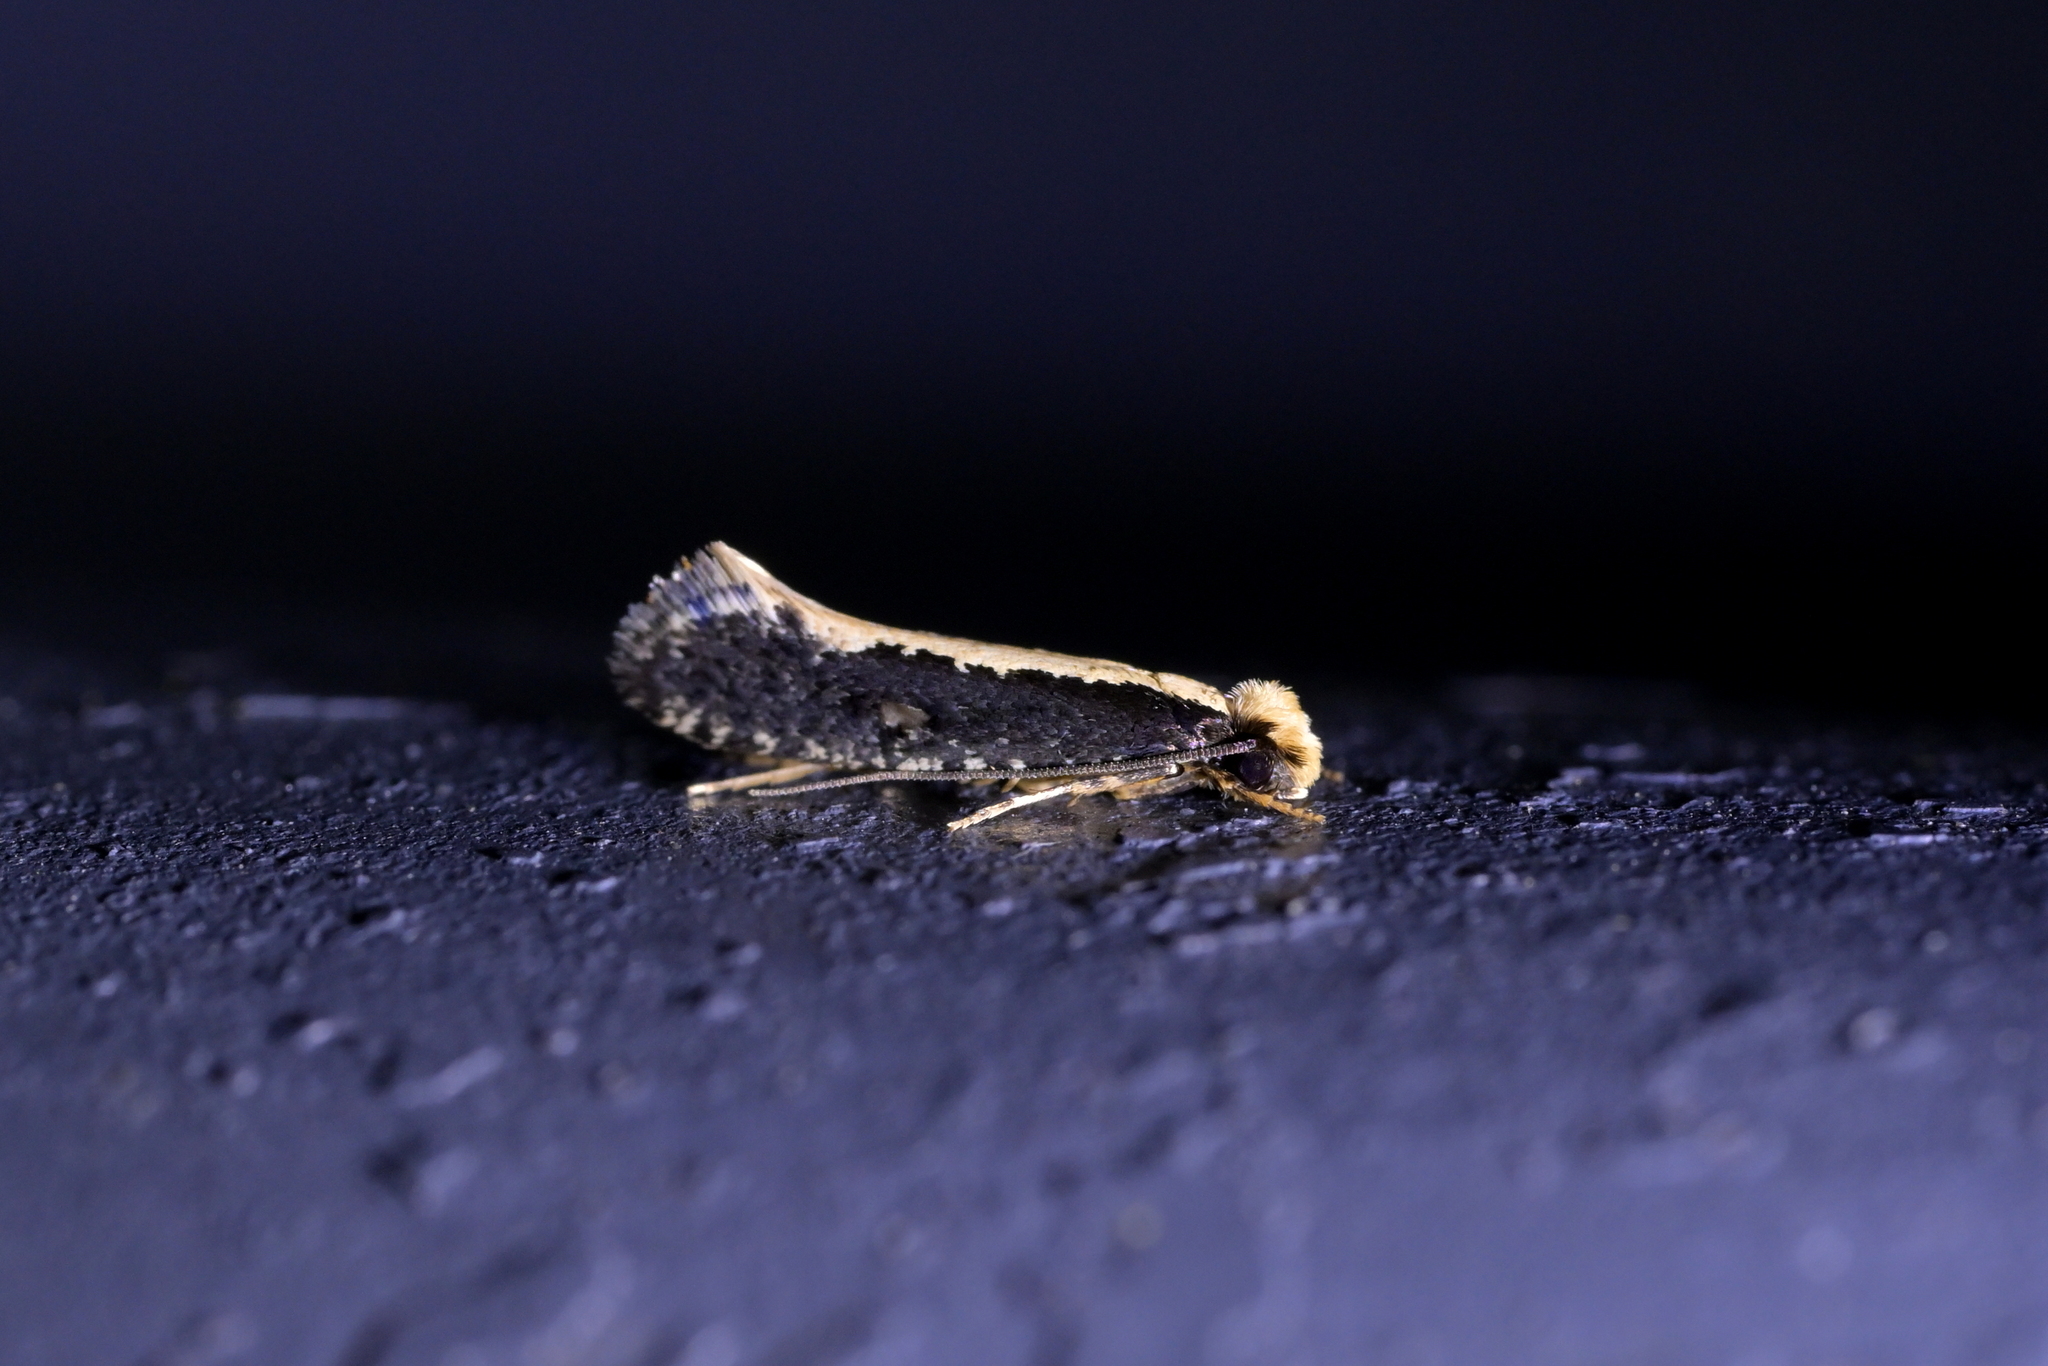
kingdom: Animalia
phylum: Arthropoda
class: Insecta
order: Lepidoptera
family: Tineidae
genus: Monopis
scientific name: Monopis ethelella
